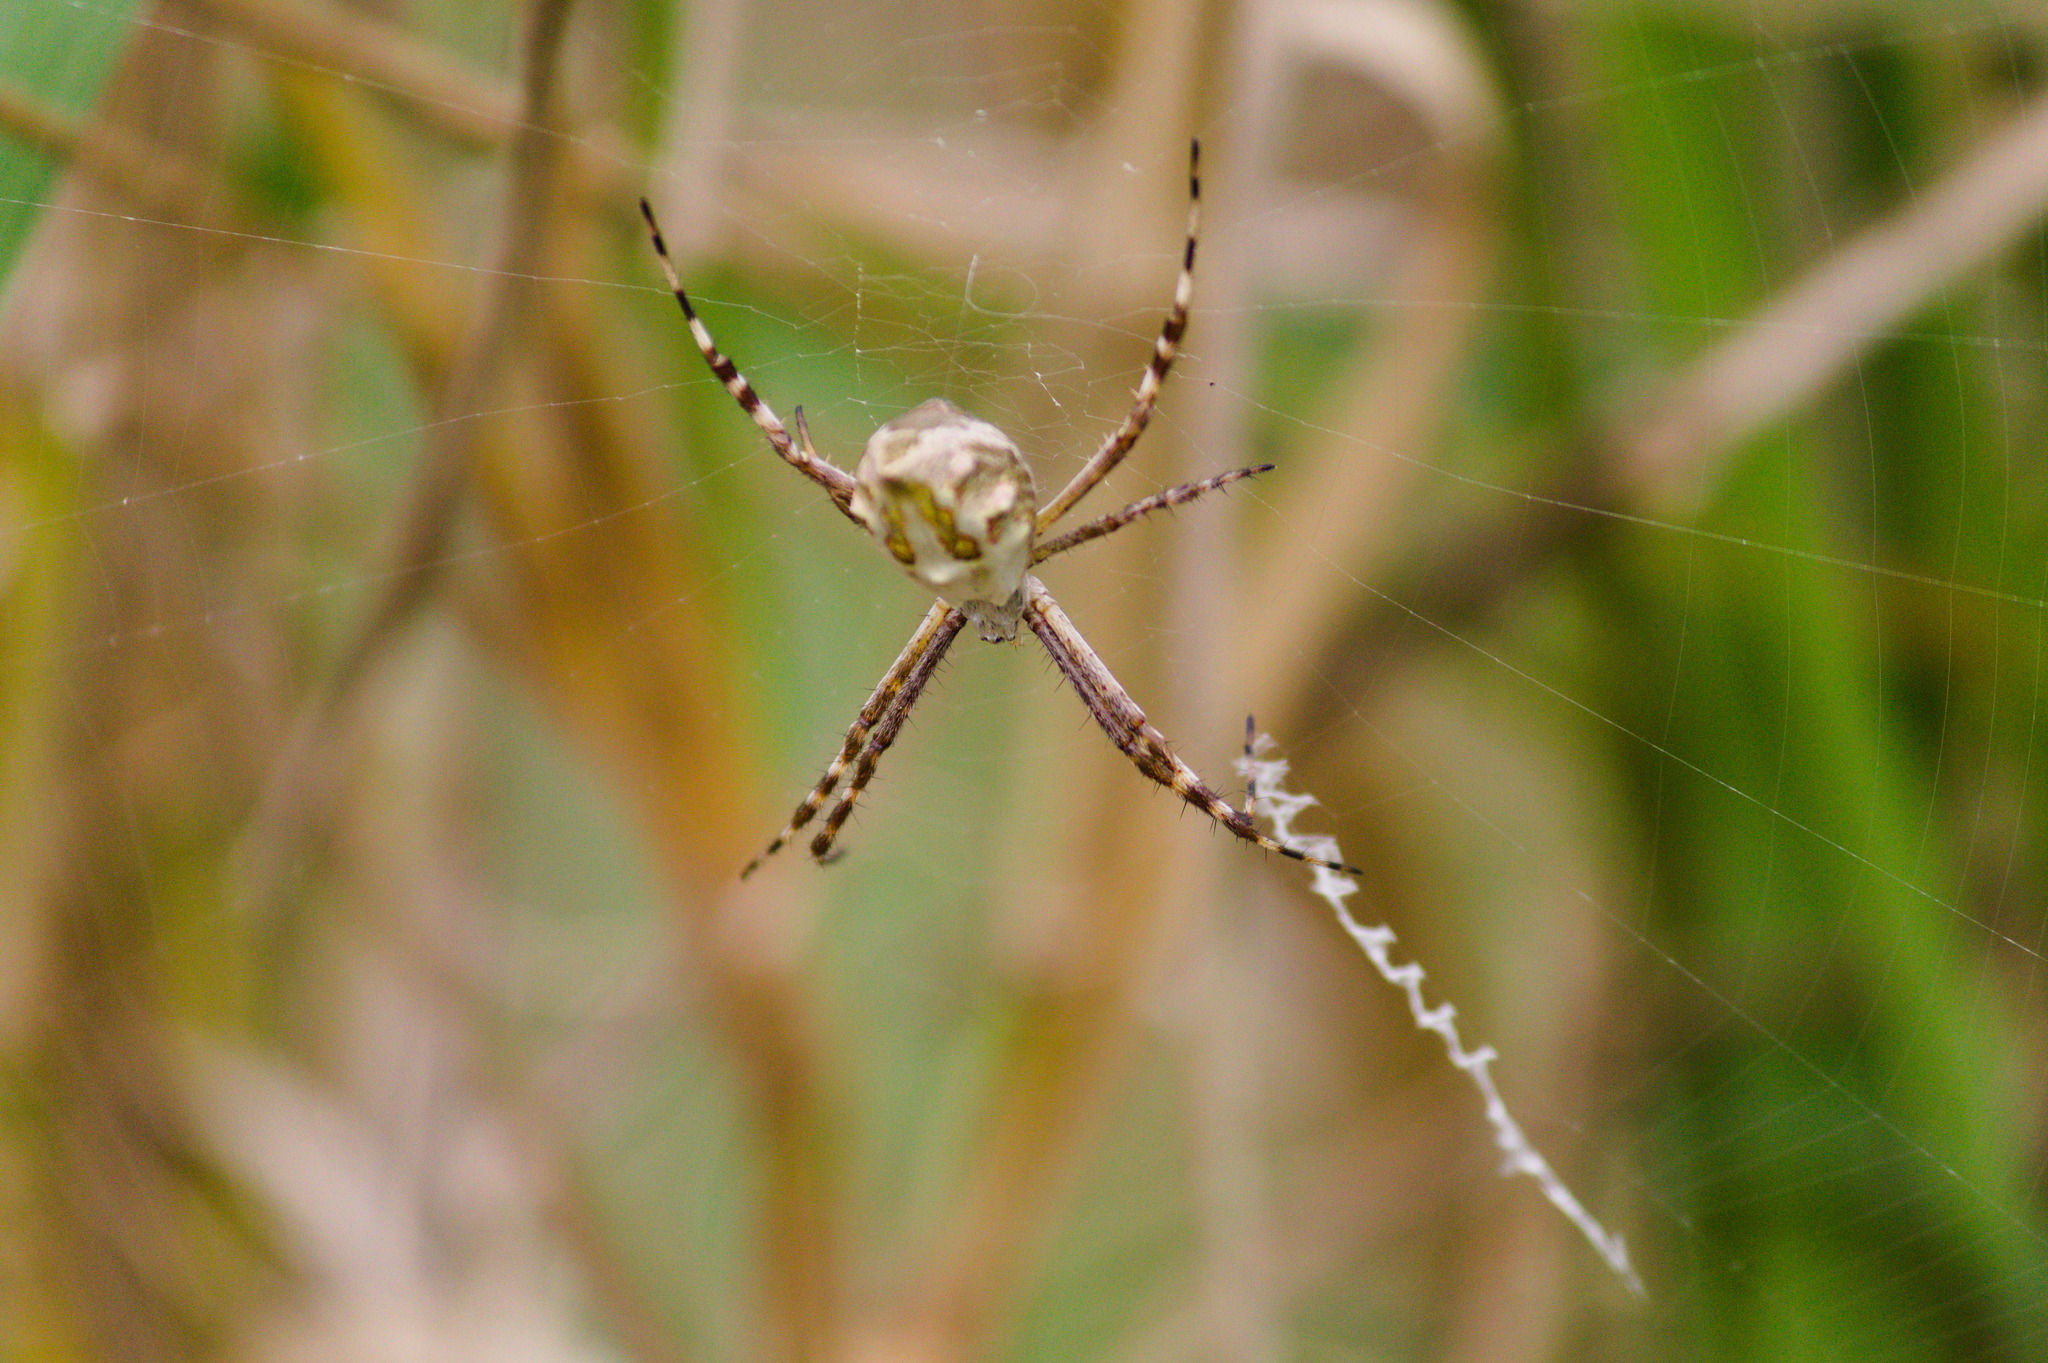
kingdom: Animalia
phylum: Arthropoda
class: Arachnida
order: Araneae
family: Araneidae
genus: Argiope
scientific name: Argiope argentata
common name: Orb weavers
